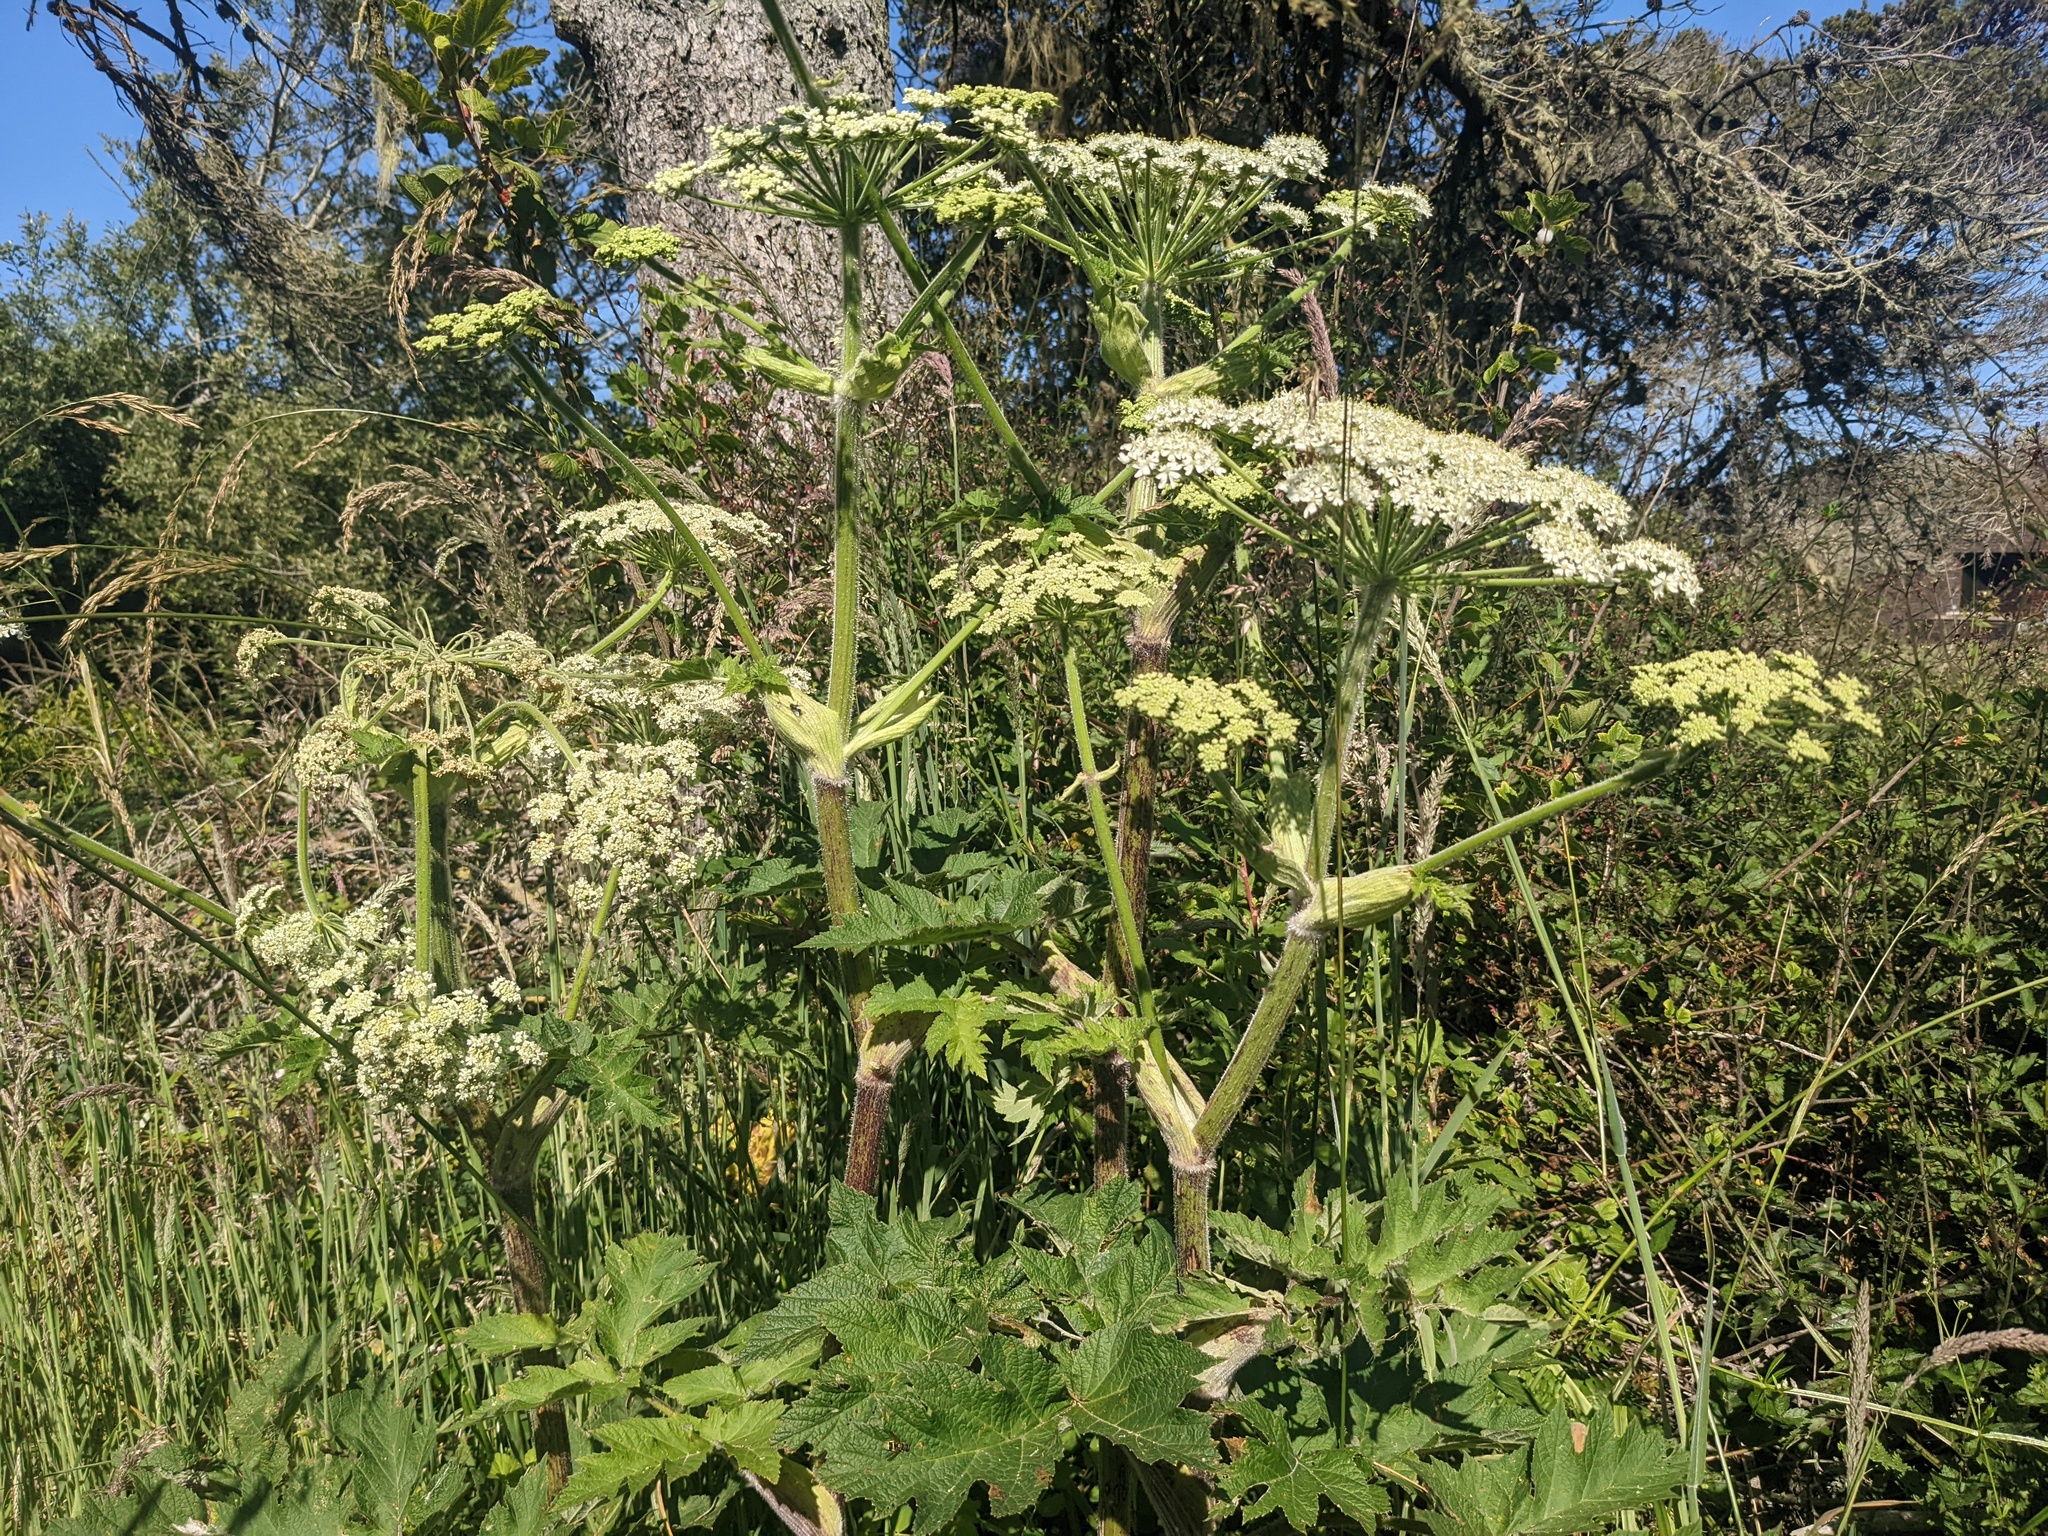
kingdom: Plantae
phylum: Tracheophyta
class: Magnoliopsida
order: Apiales
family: Apiaceae
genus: Heracleum
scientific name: Heracleum maximum
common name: American cow parsnip
